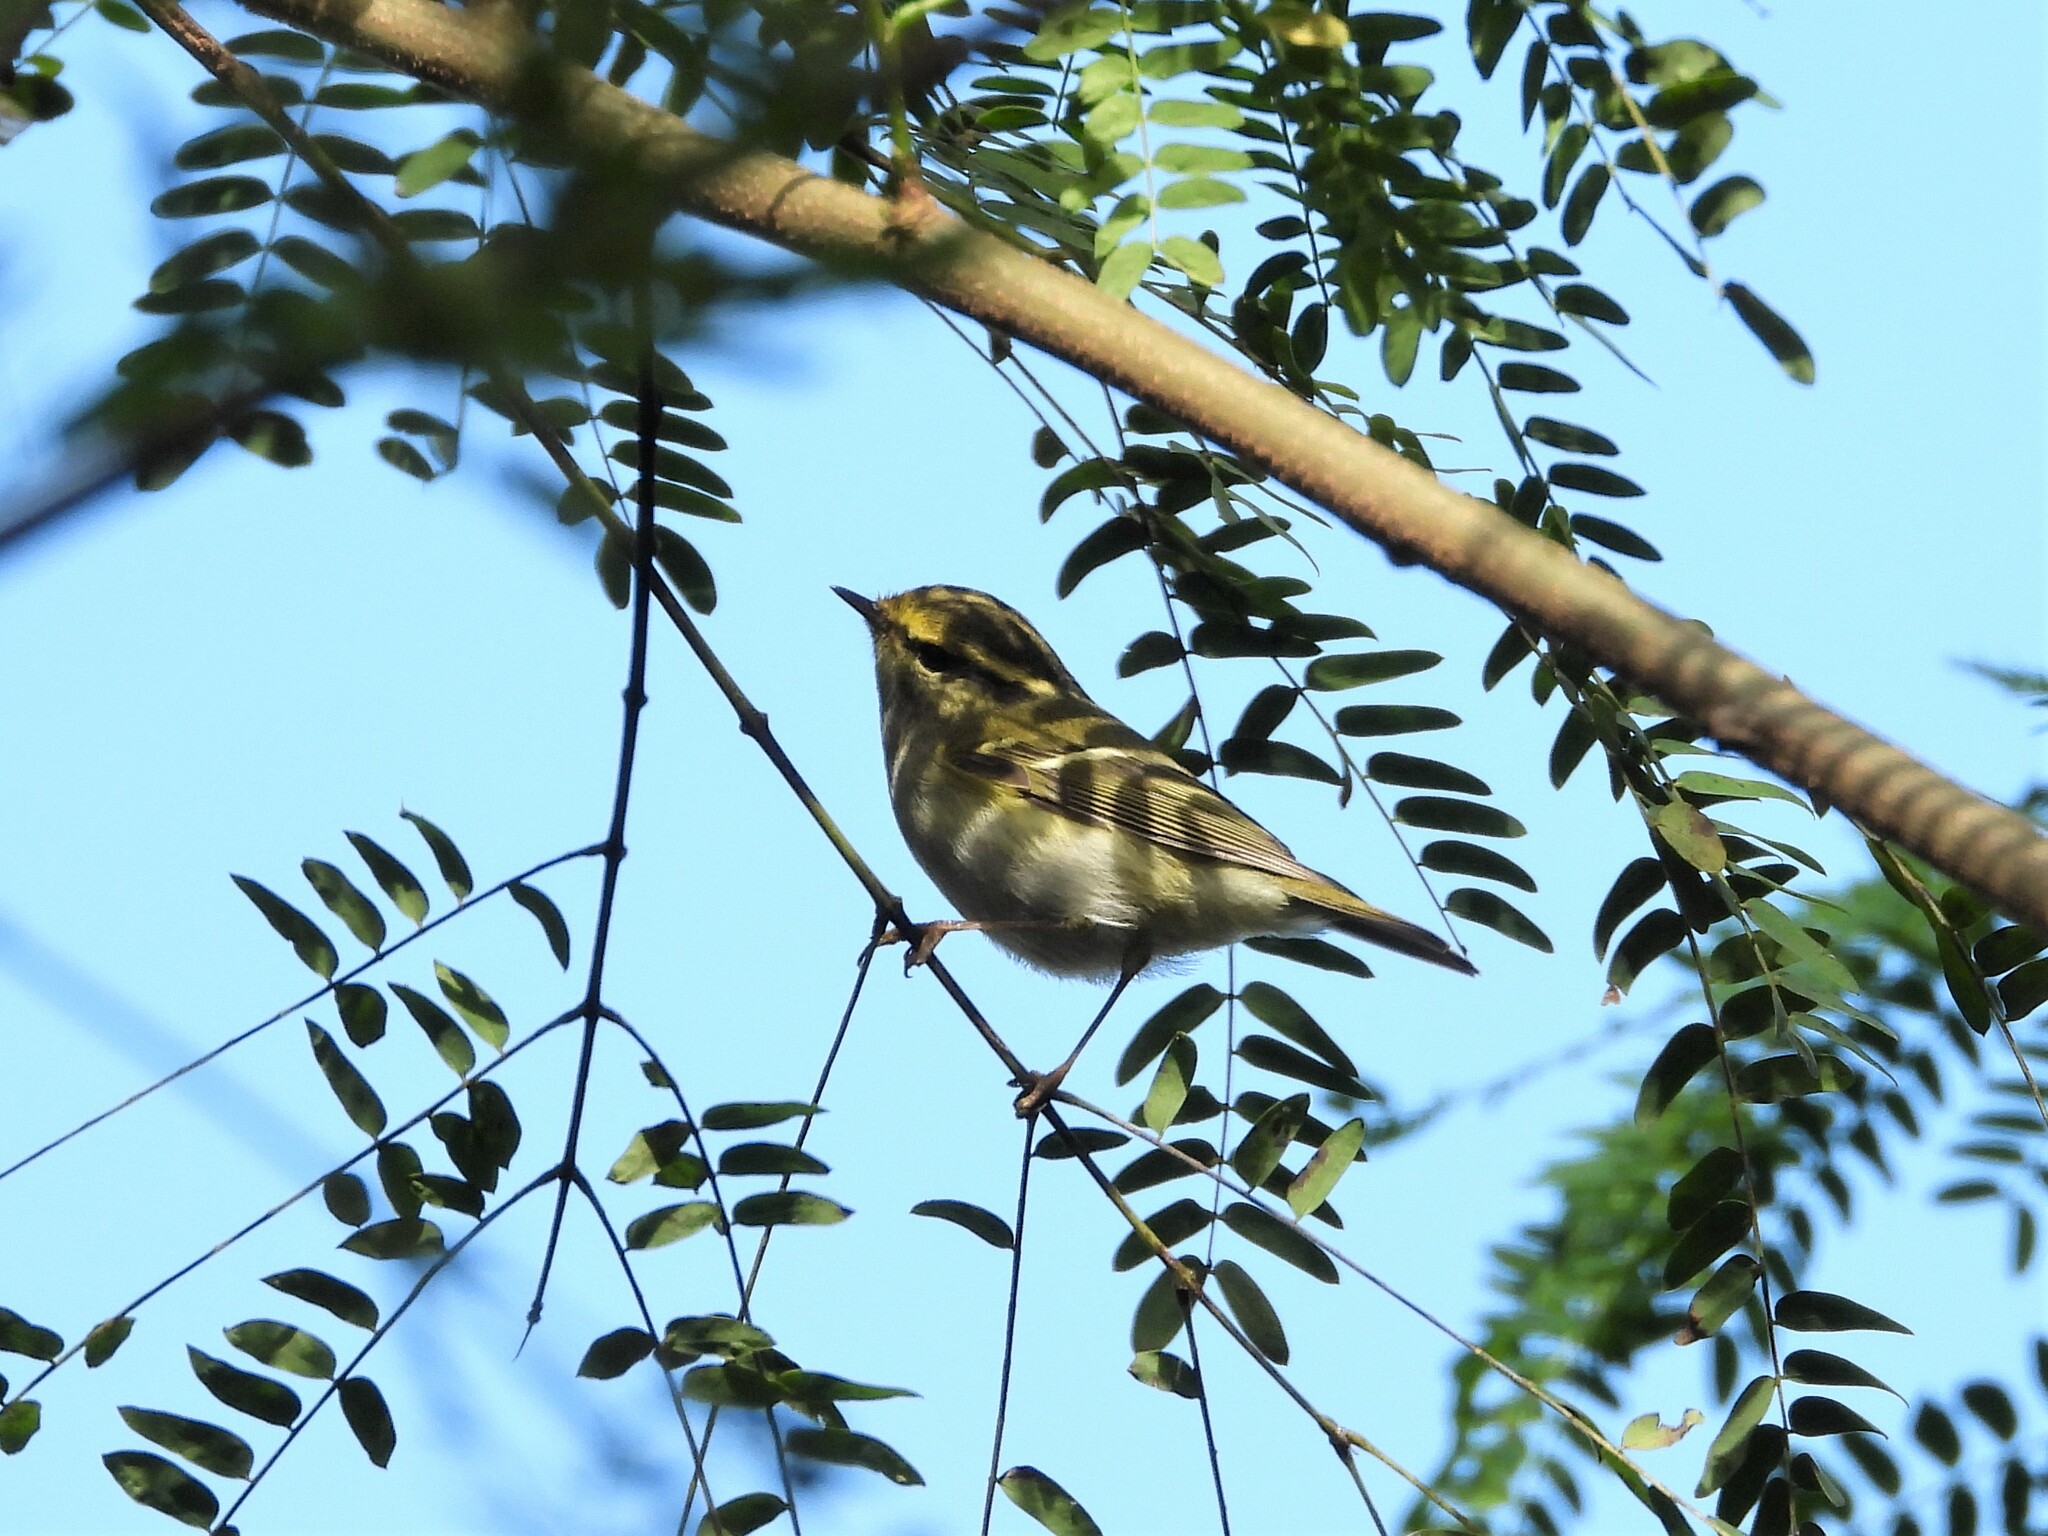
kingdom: Animalia
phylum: Chordata
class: Aves
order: Passeriformes
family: Phylloscopidae
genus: Phylloscopus
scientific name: Phylloscopus proregulus
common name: Pallas's leaf warbler
